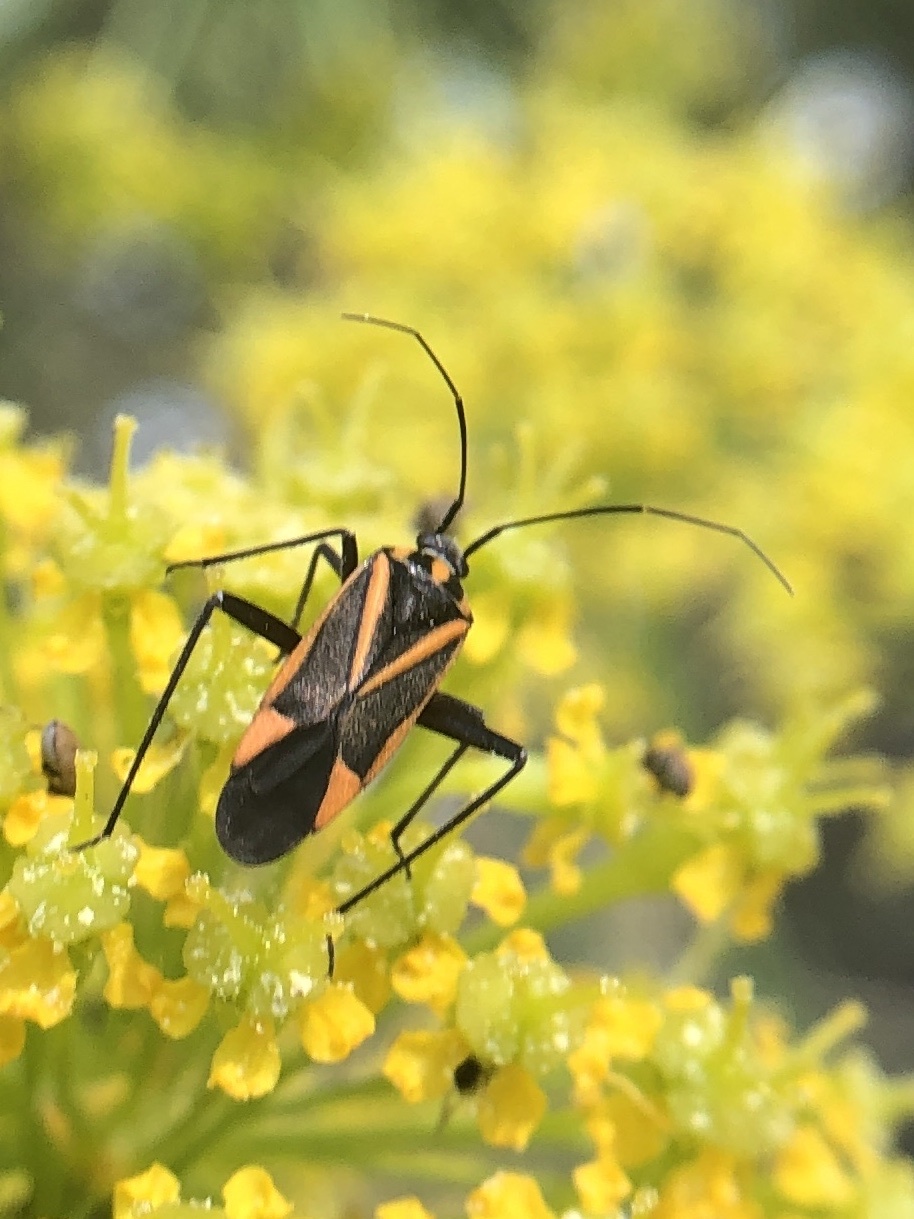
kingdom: Animalia
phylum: Arthropoda
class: Insecta
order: Hemiptera
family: Miridae
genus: Hadrodemus
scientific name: Hadrodemus m-flavum
